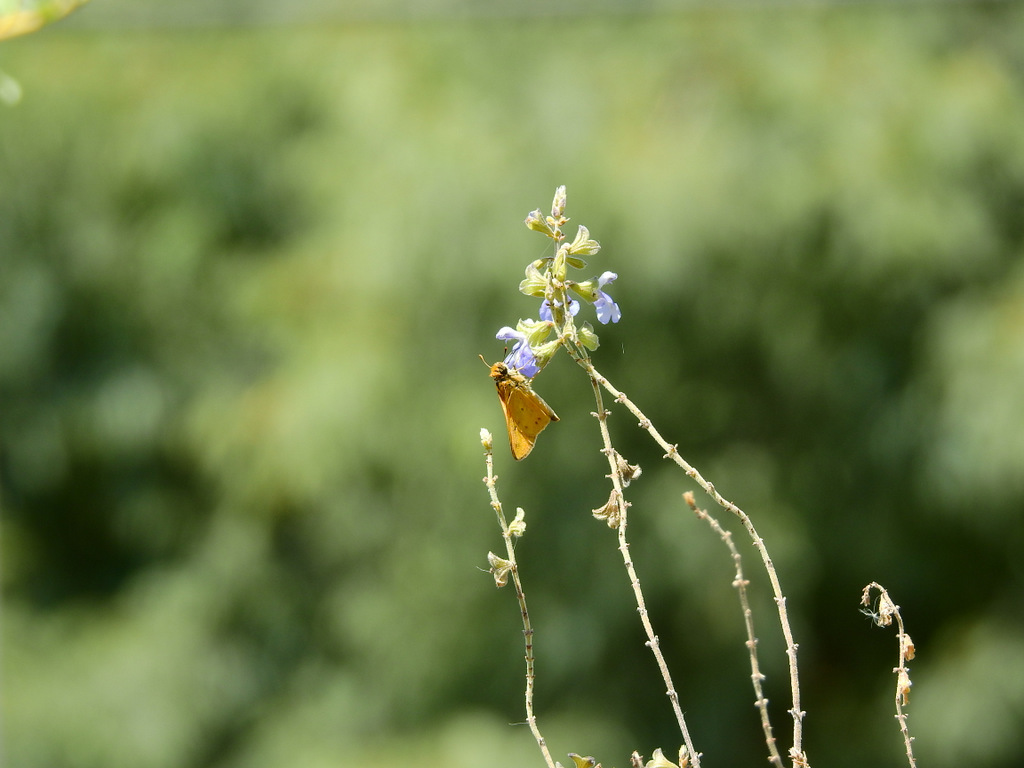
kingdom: Animalia
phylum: Arthropoda
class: Insecta
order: Lepidoptera
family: Hesperiidae
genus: Hylephila
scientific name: Hylephila phyleus
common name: Fiery skipper
